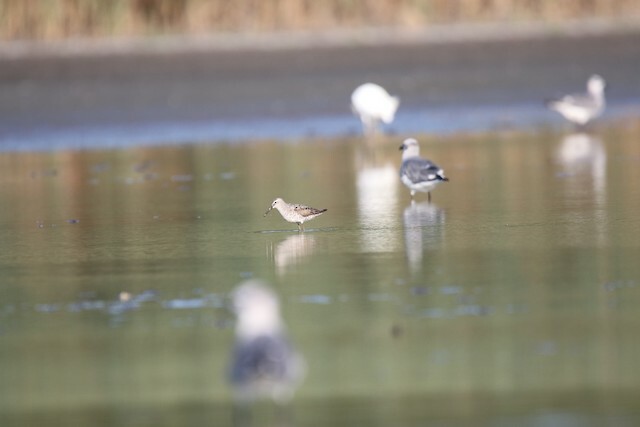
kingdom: Animalia
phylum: Chordata
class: Aves
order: Charadriiformes
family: Scolopacidae
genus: Calidris
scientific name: Calidris himantopus
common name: Stilt sandpiper
